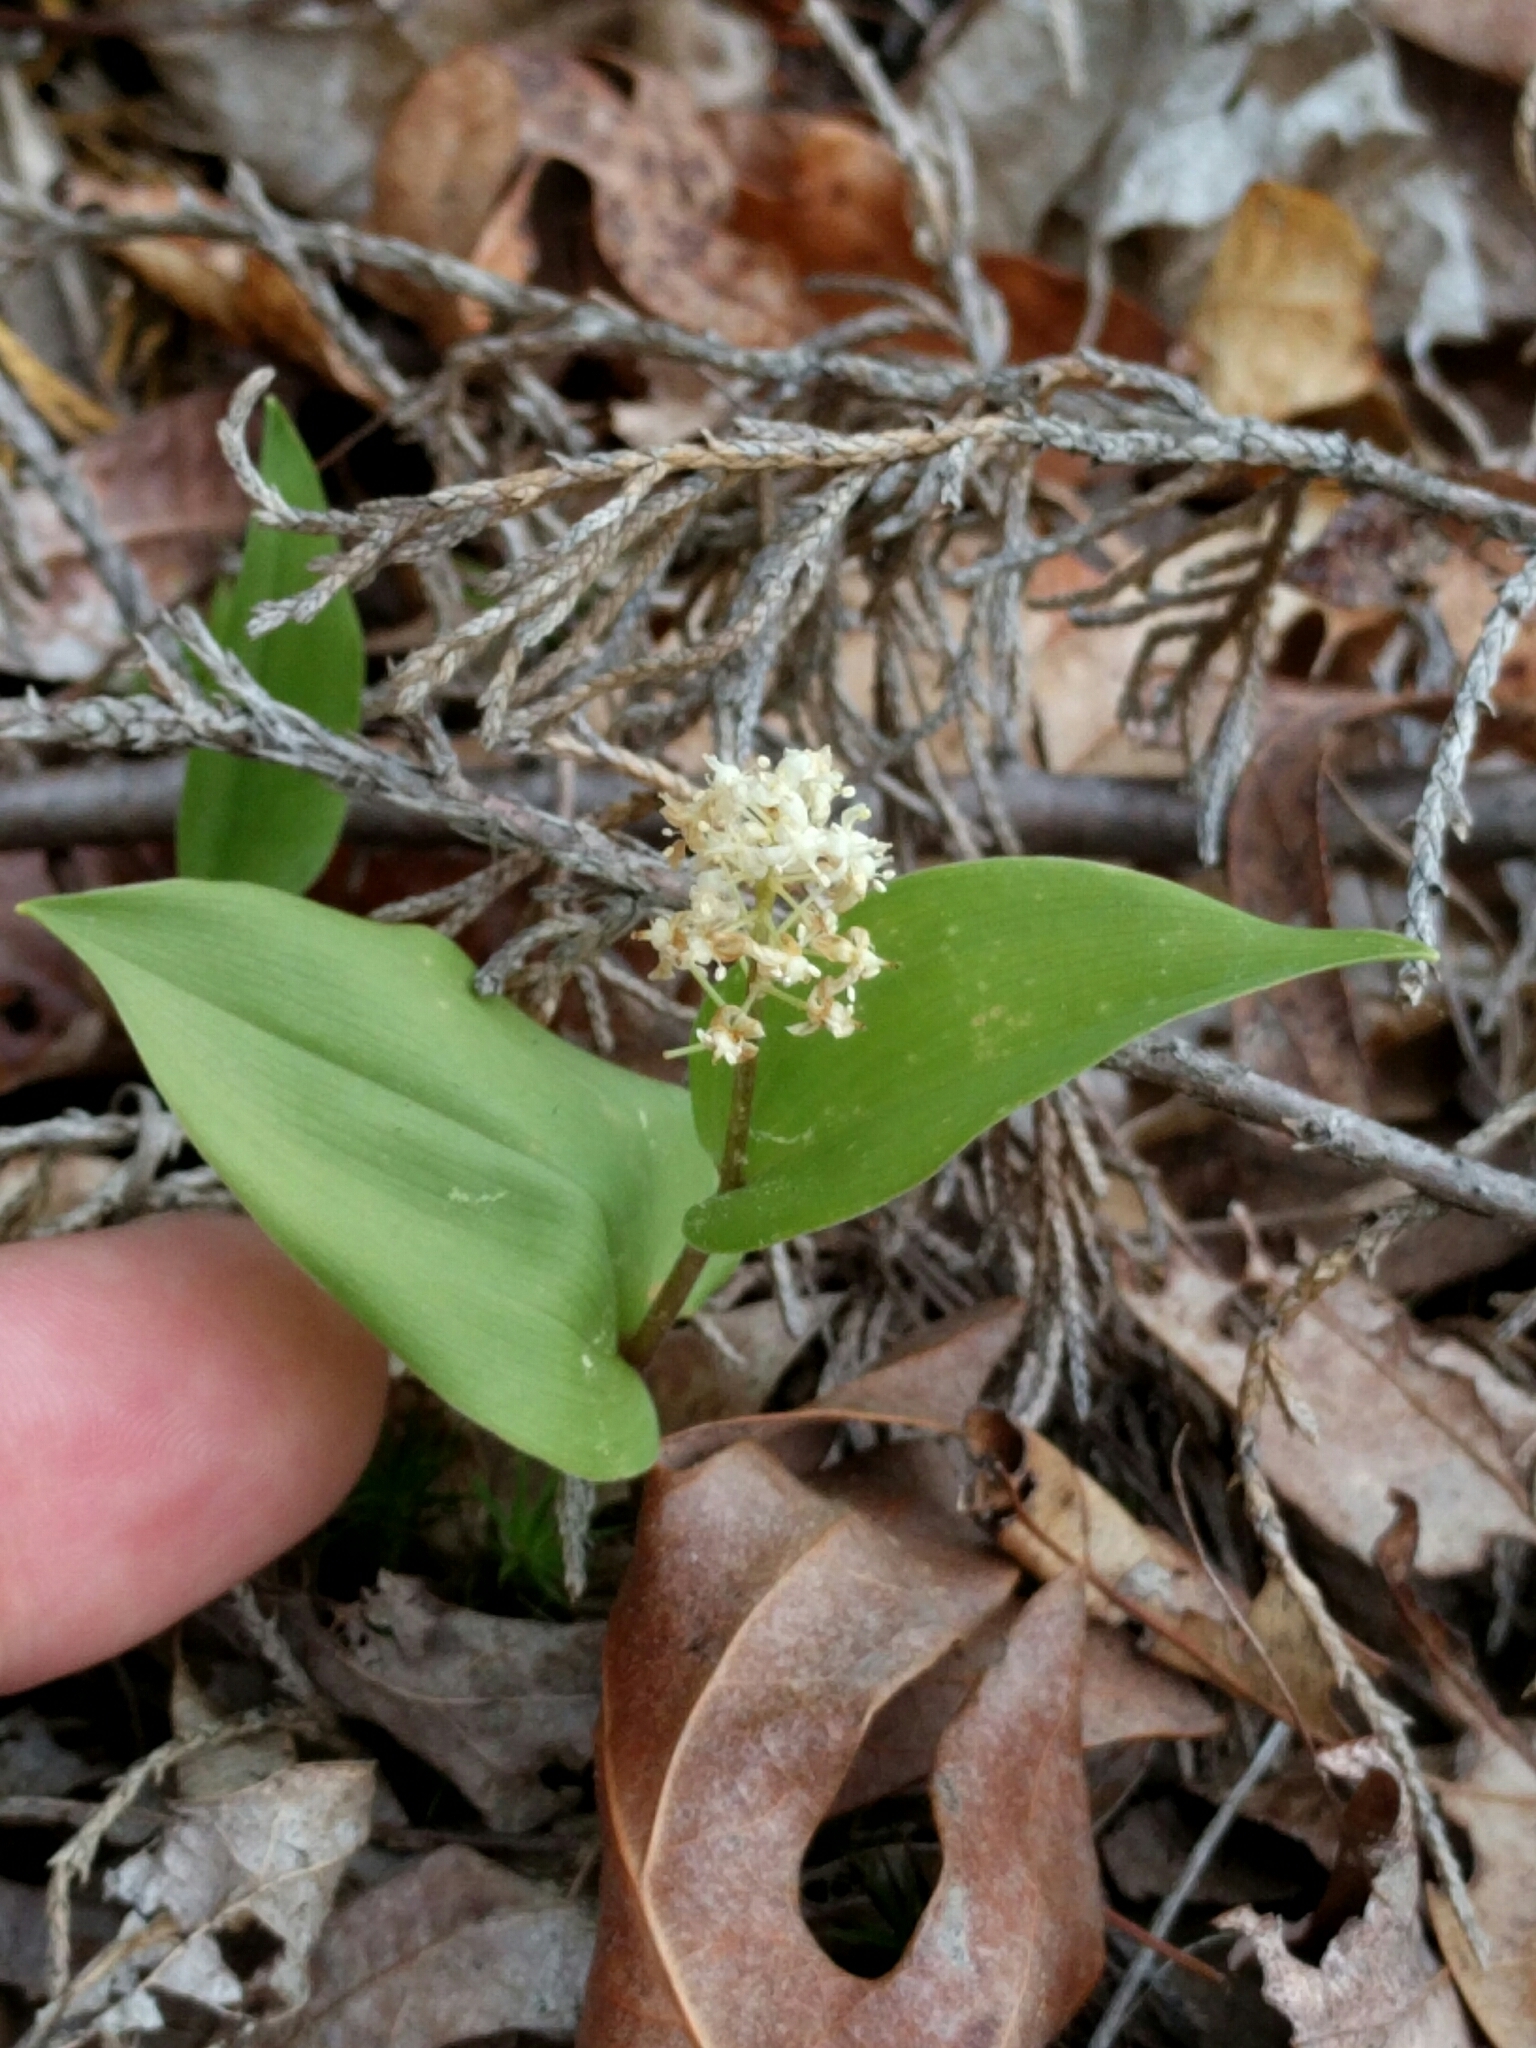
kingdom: Plantae
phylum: Tracheophyta
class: Liliopsida
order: Asparagales
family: Asparagaceae
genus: Maianthemum
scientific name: Maianthemum canadense
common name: False lily-of-the-valley
